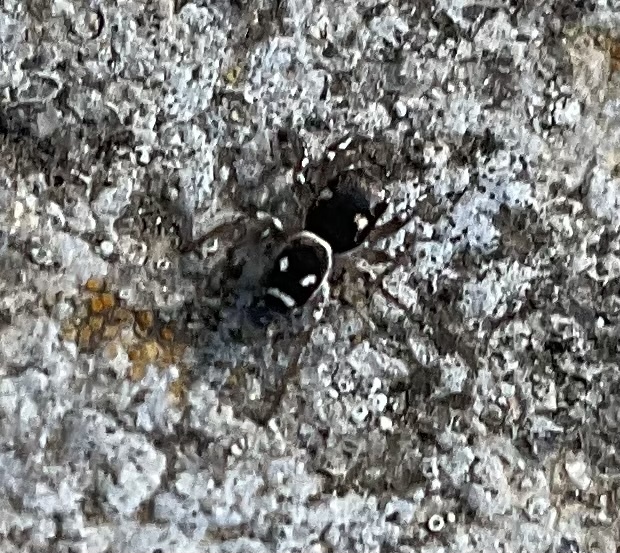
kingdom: Animalia
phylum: Arthropoda
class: Arachnida
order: Araneae
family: Salticidae
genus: Heliophanus
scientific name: Heliophanus apiatus
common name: Sun jumping spider
